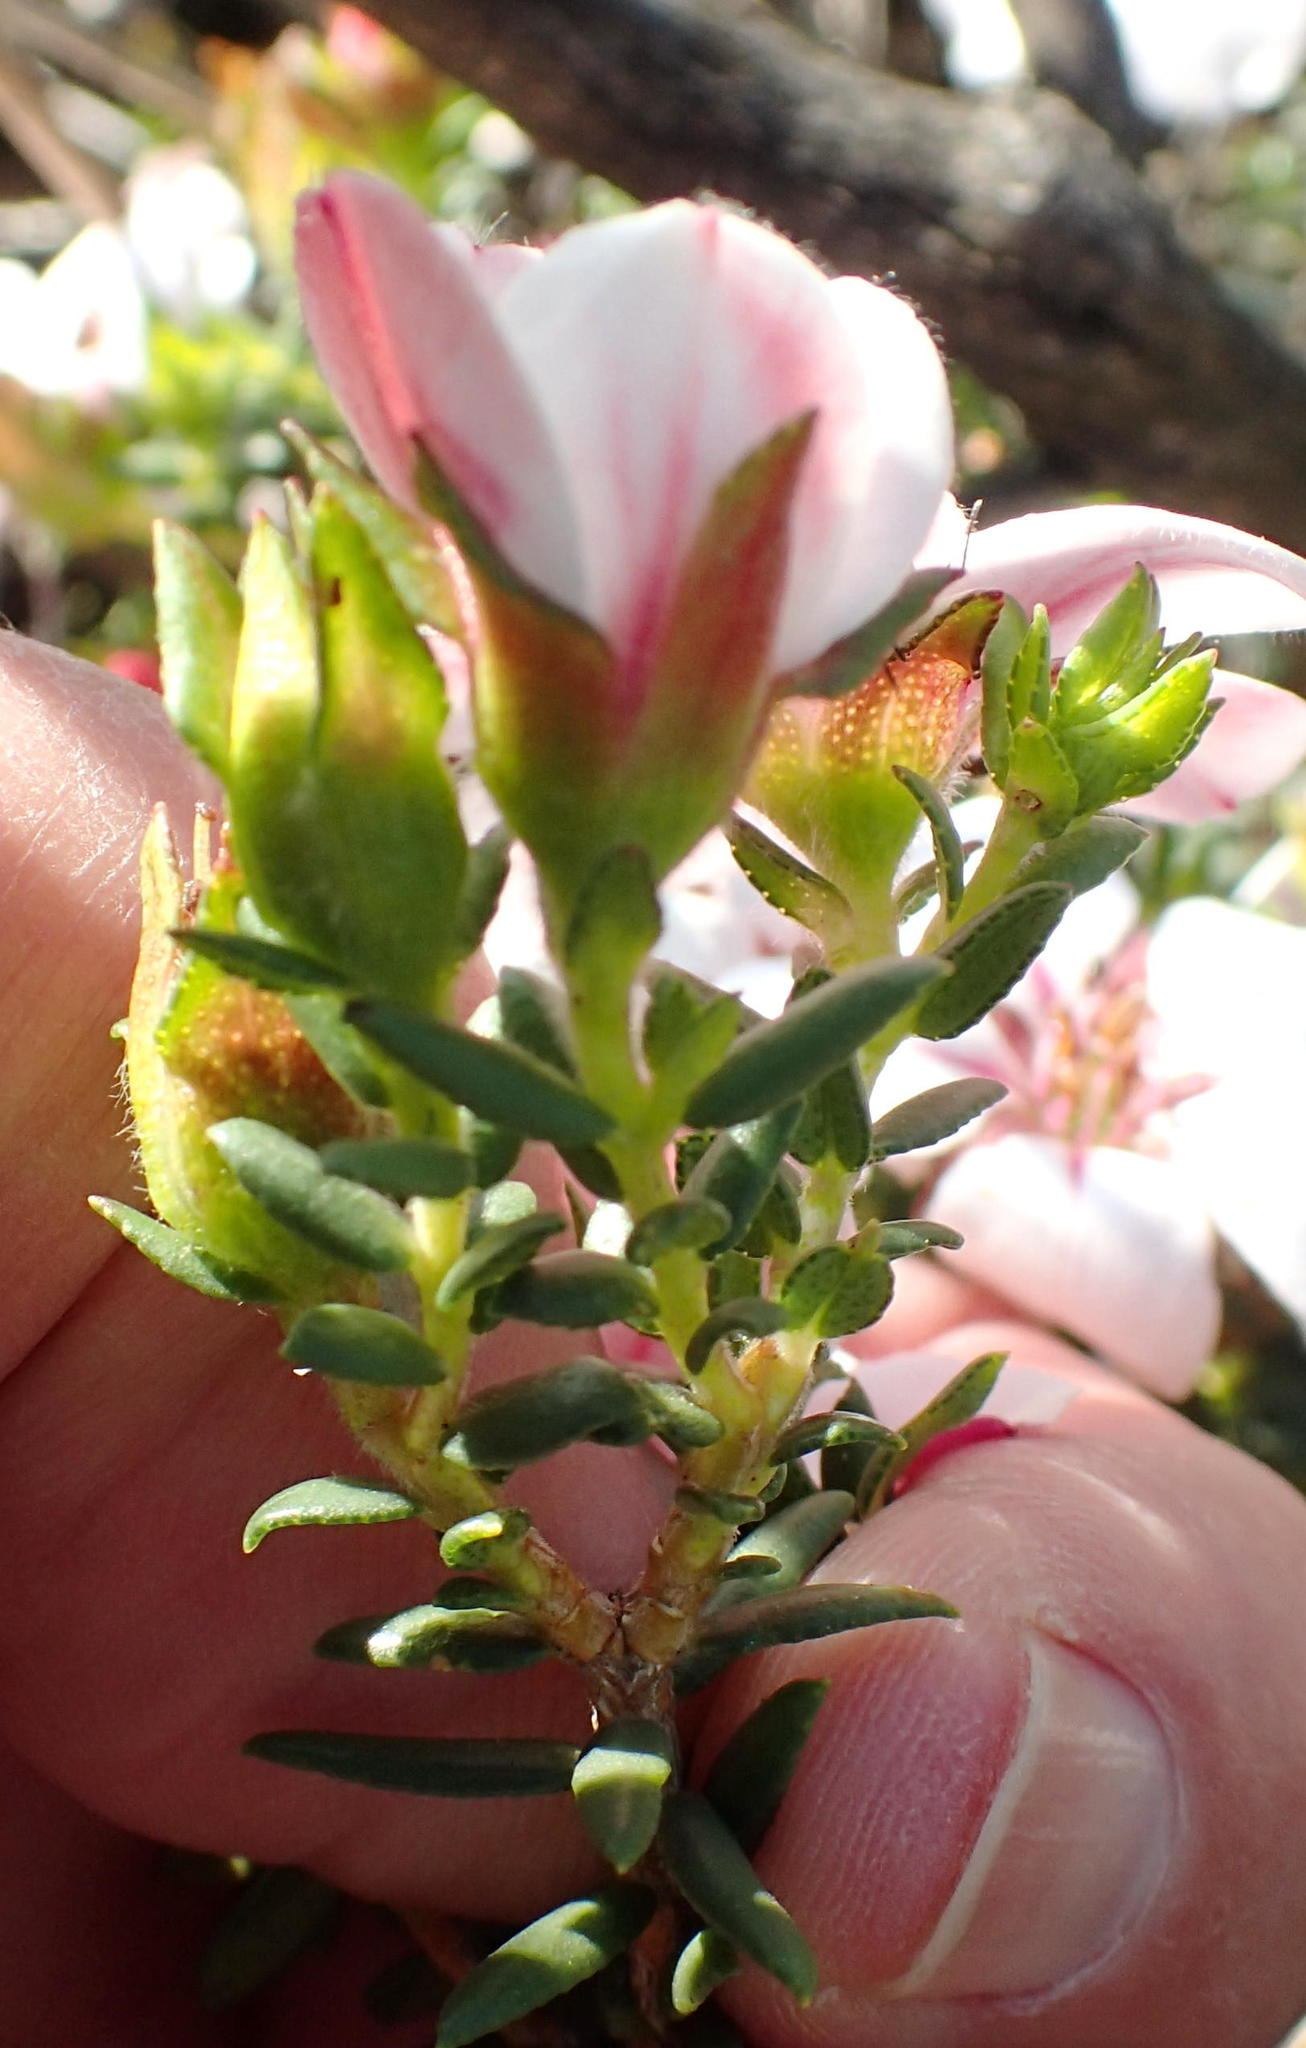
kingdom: Plantae
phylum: Tracheophyta
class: Magnoliopsida
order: Sapindales
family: Rutaceae
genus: Adenandra
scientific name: Adenandra uniflora
